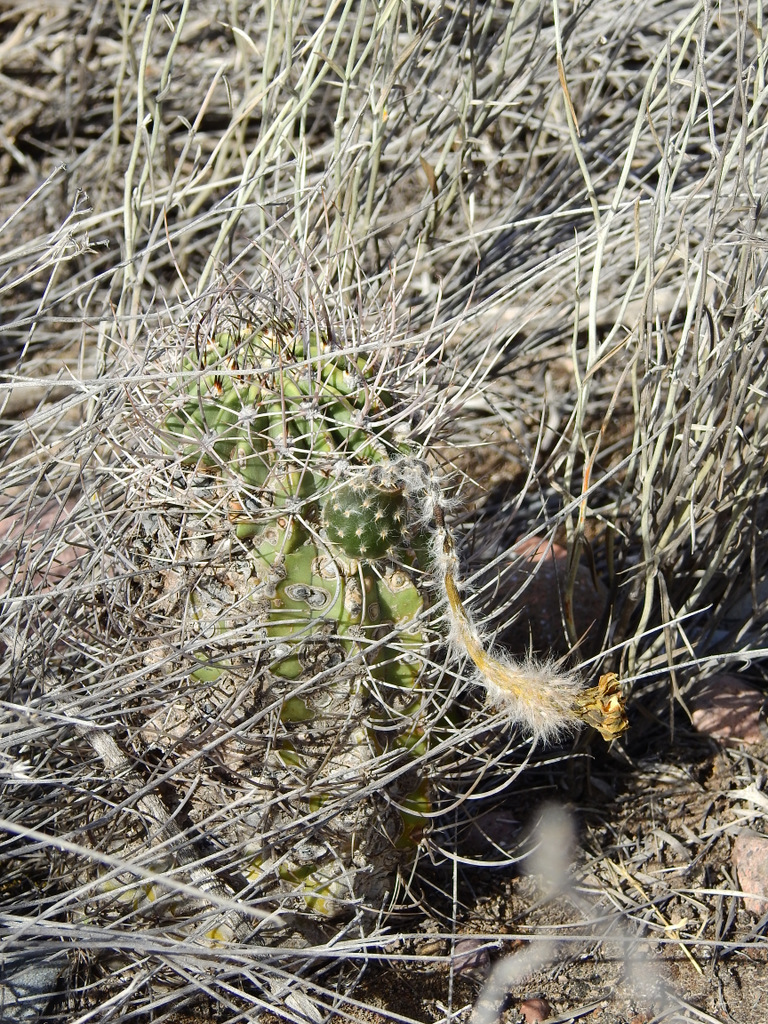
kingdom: Plantae
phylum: Tracheophyta
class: Magnoliopsida
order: Caryophyllales
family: Cactaceae
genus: Acanthocalycium
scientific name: Acanthocalycium leucanthum
